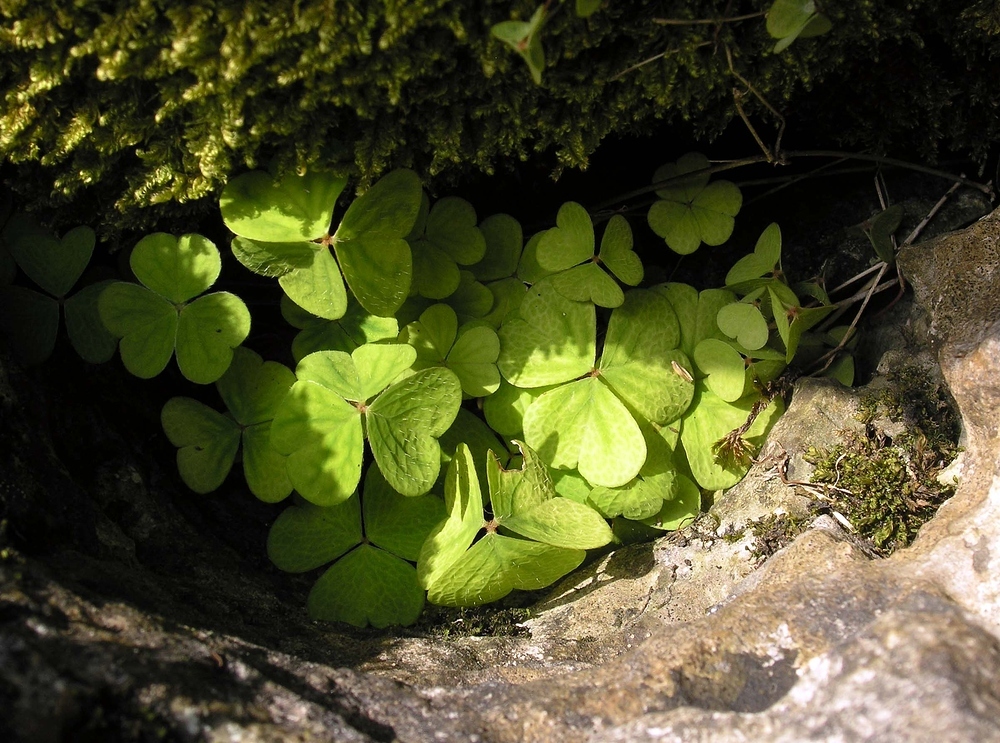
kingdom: Plantae
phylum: Tracheophyta
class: Magnoliopsida
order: Oxalidales
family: Oxalidaceae
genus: Oxalis
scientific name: Oxalis acetosella
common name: Wood-sorrel
